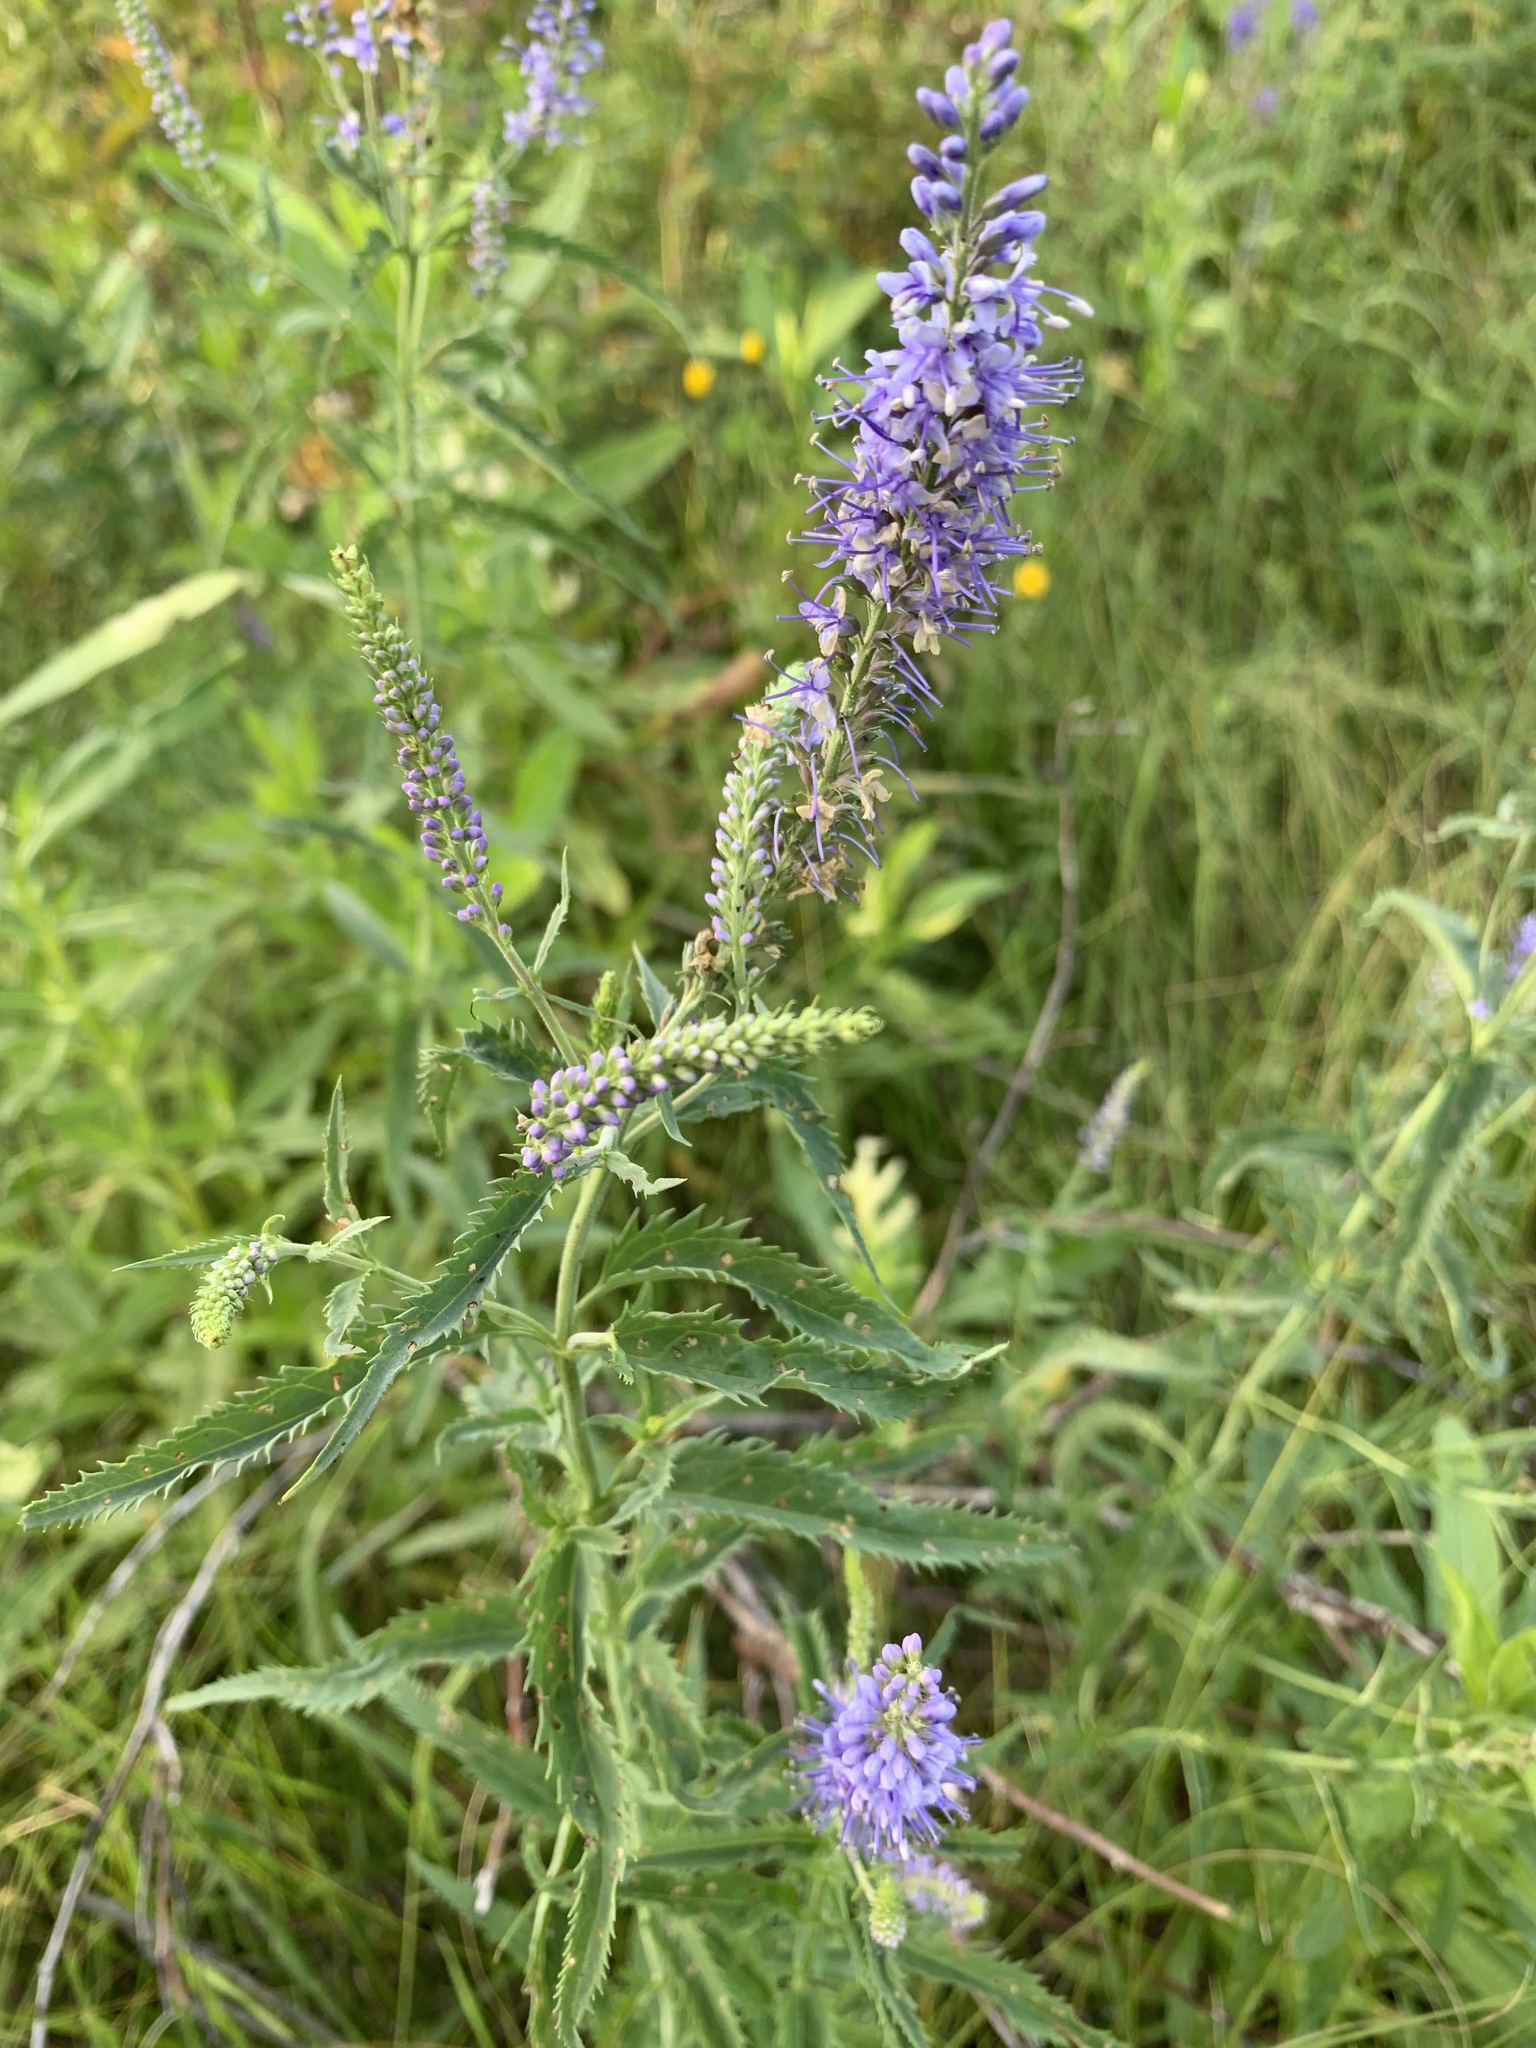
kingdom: Plantae
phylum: Tracheophyta
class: Magnoliopsida
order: Lamiales
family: Plantaginaceae
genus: Veronica
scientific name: Veronica longifolia
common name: Garden speedwell
